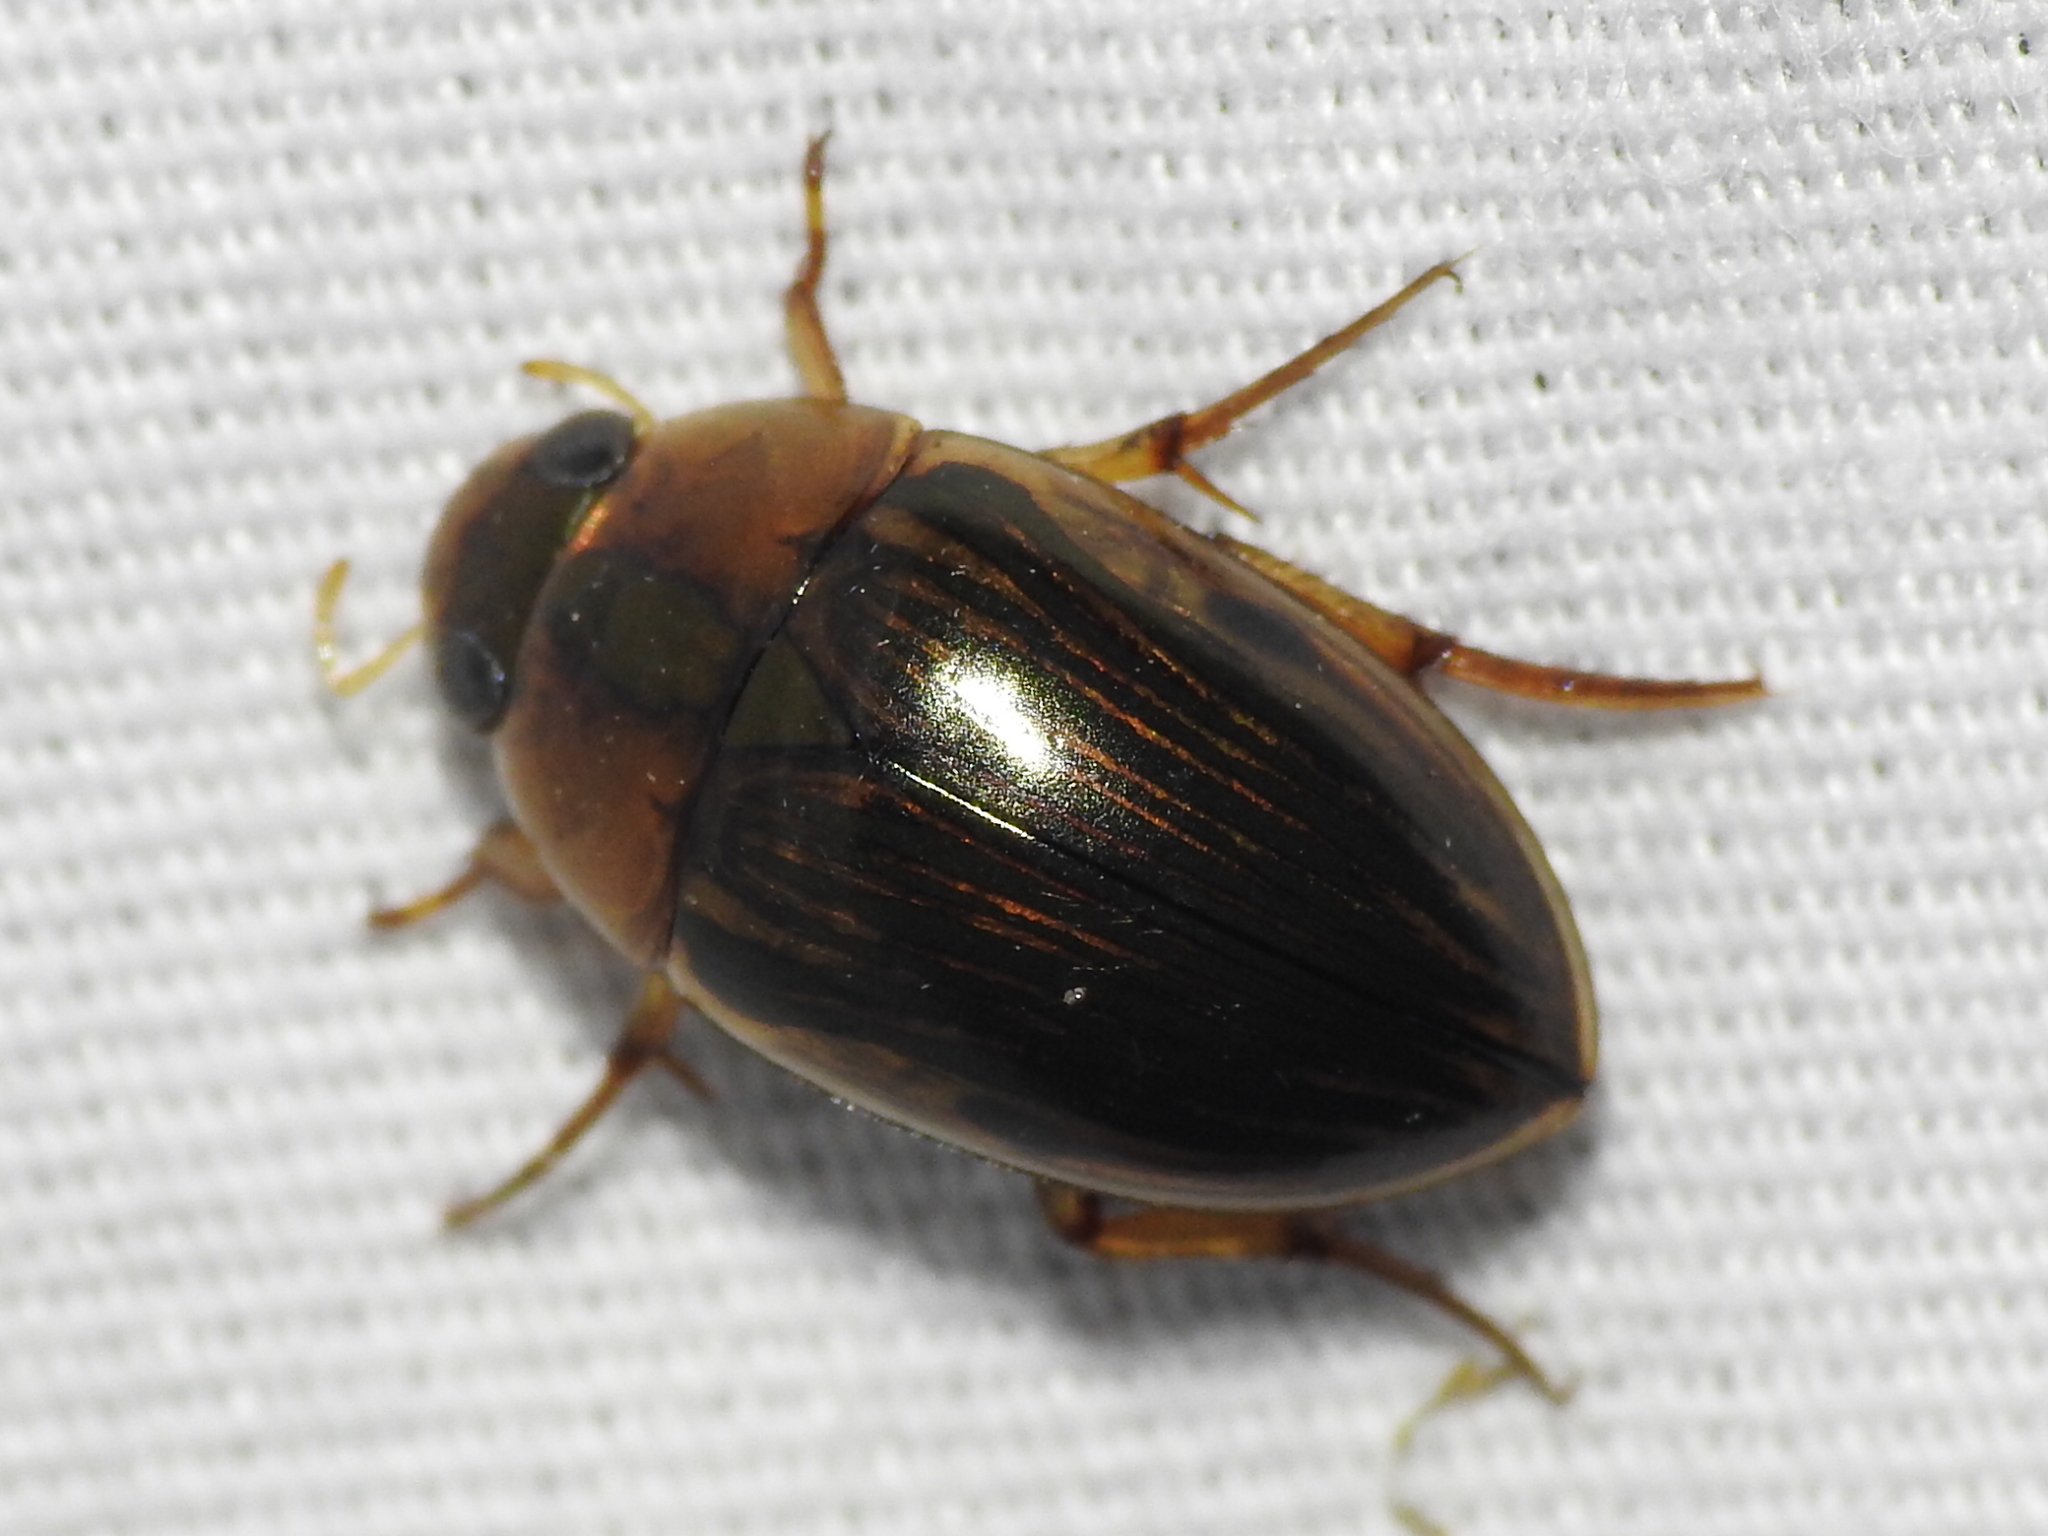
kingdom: Animalia
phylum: Arthropoda
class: Insecta
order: Coleoptera
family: Hydrophilidae
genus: Tropisternus
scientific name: Tropisternus collaris
